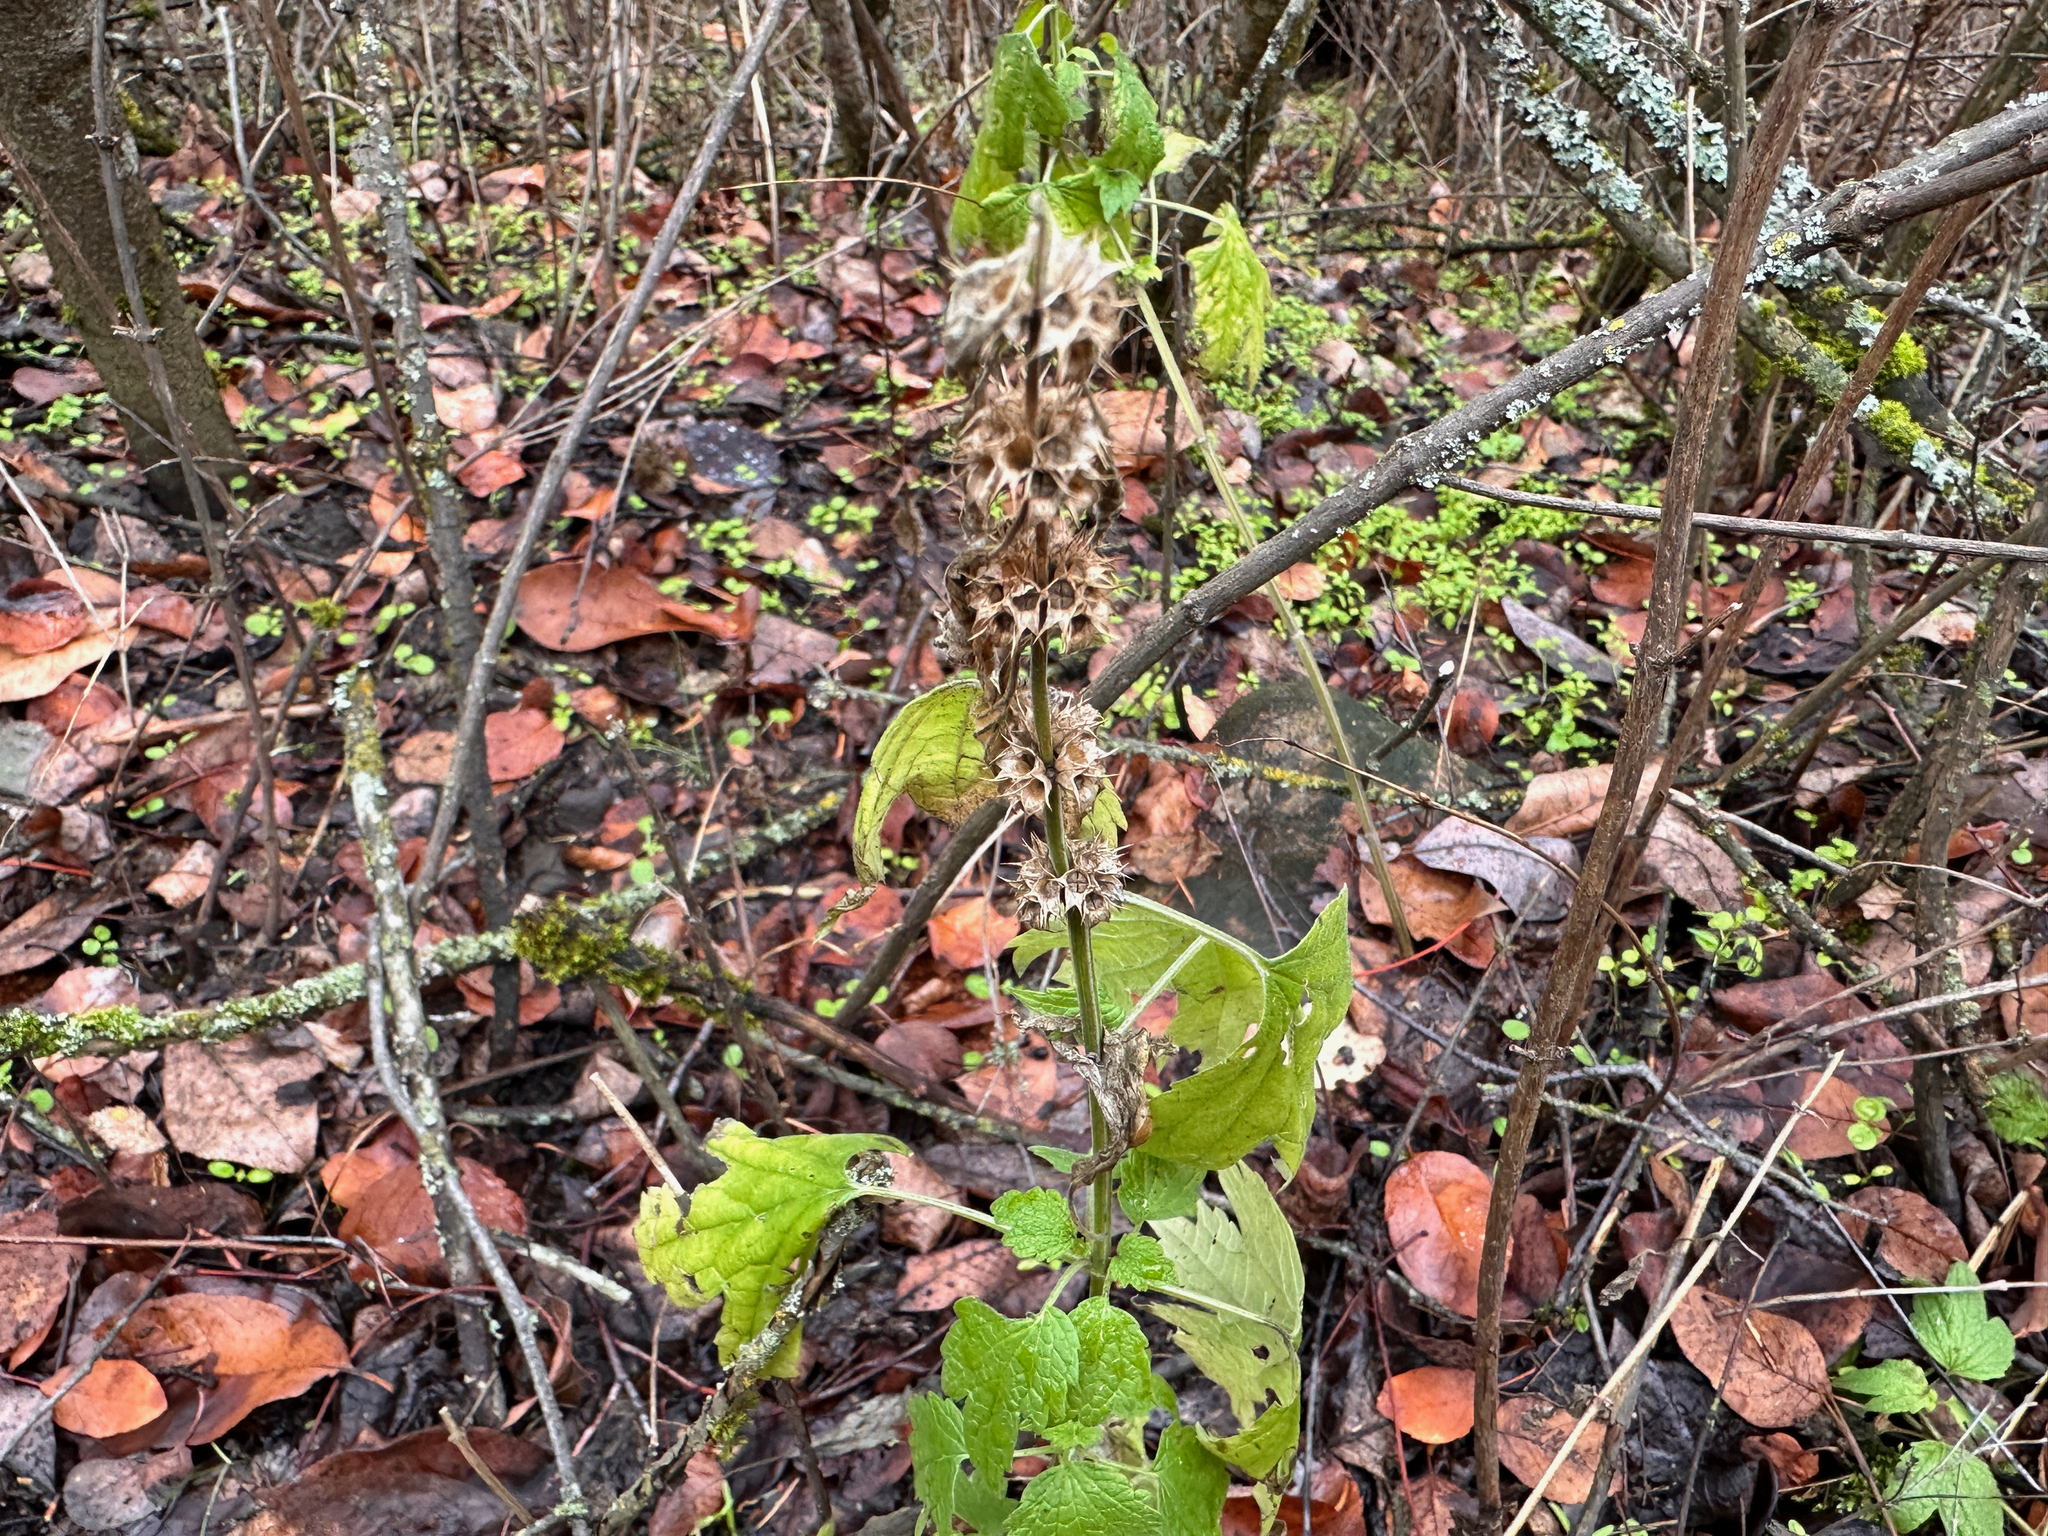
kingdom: Plantae
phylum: Tracheophyta
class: Magnoliopsida
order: Lamiales
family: Lamiaceae
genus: Leonurus
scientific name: Leonurus cardiaca
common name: Motherwort
